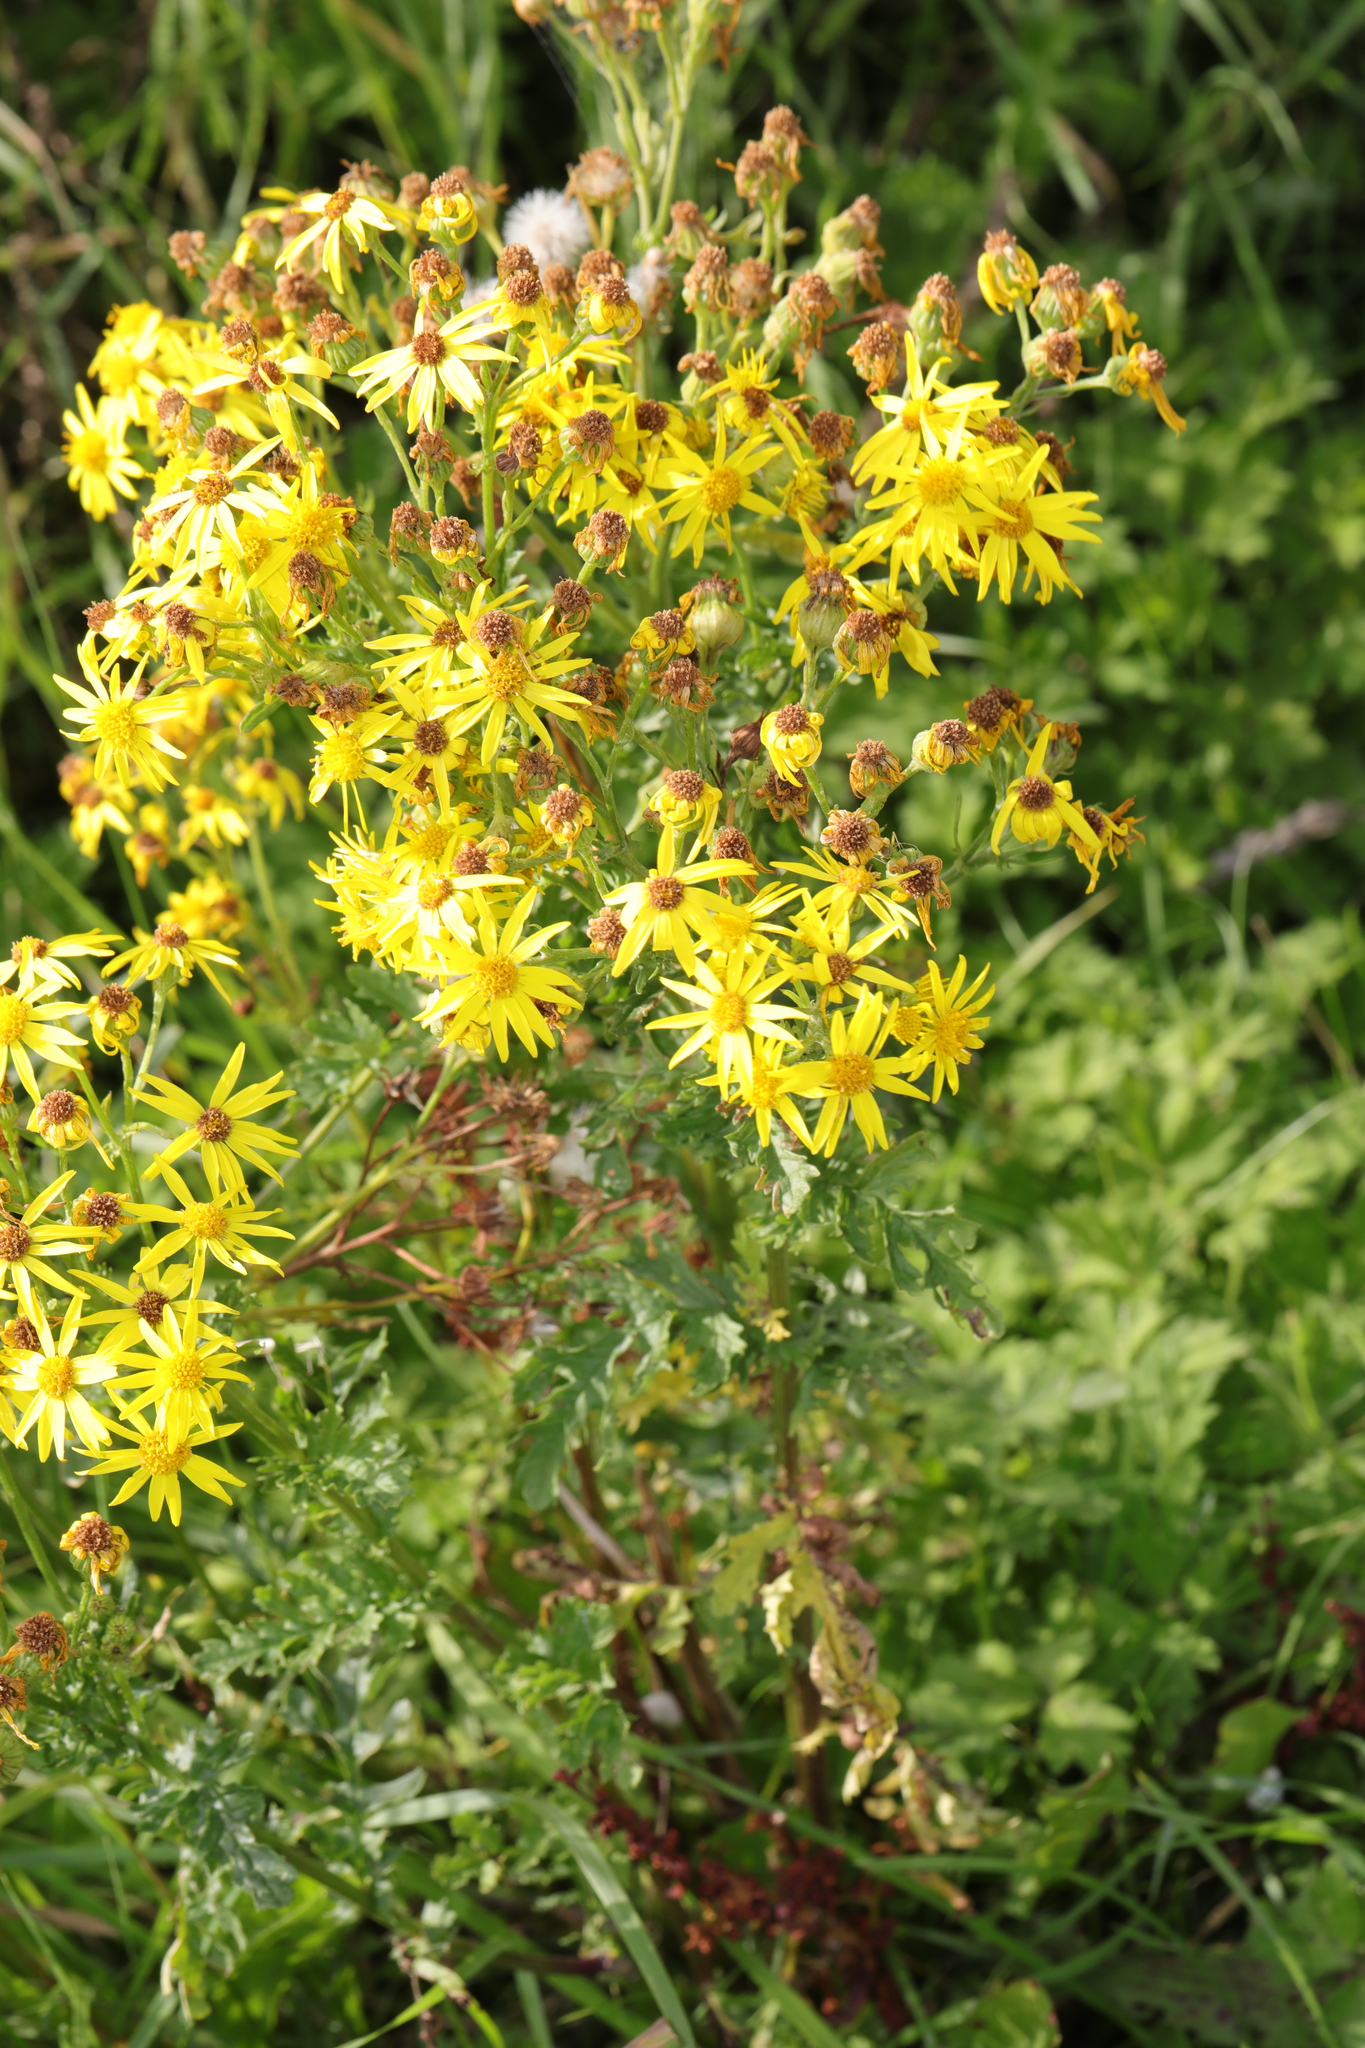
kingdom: Plantae
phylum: Tracheophyta
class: Magnoliopsida
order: Asterales
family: Asteraceae
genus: Jacobaea
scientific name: Jacobaea vulgaris
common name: Stinking willie
